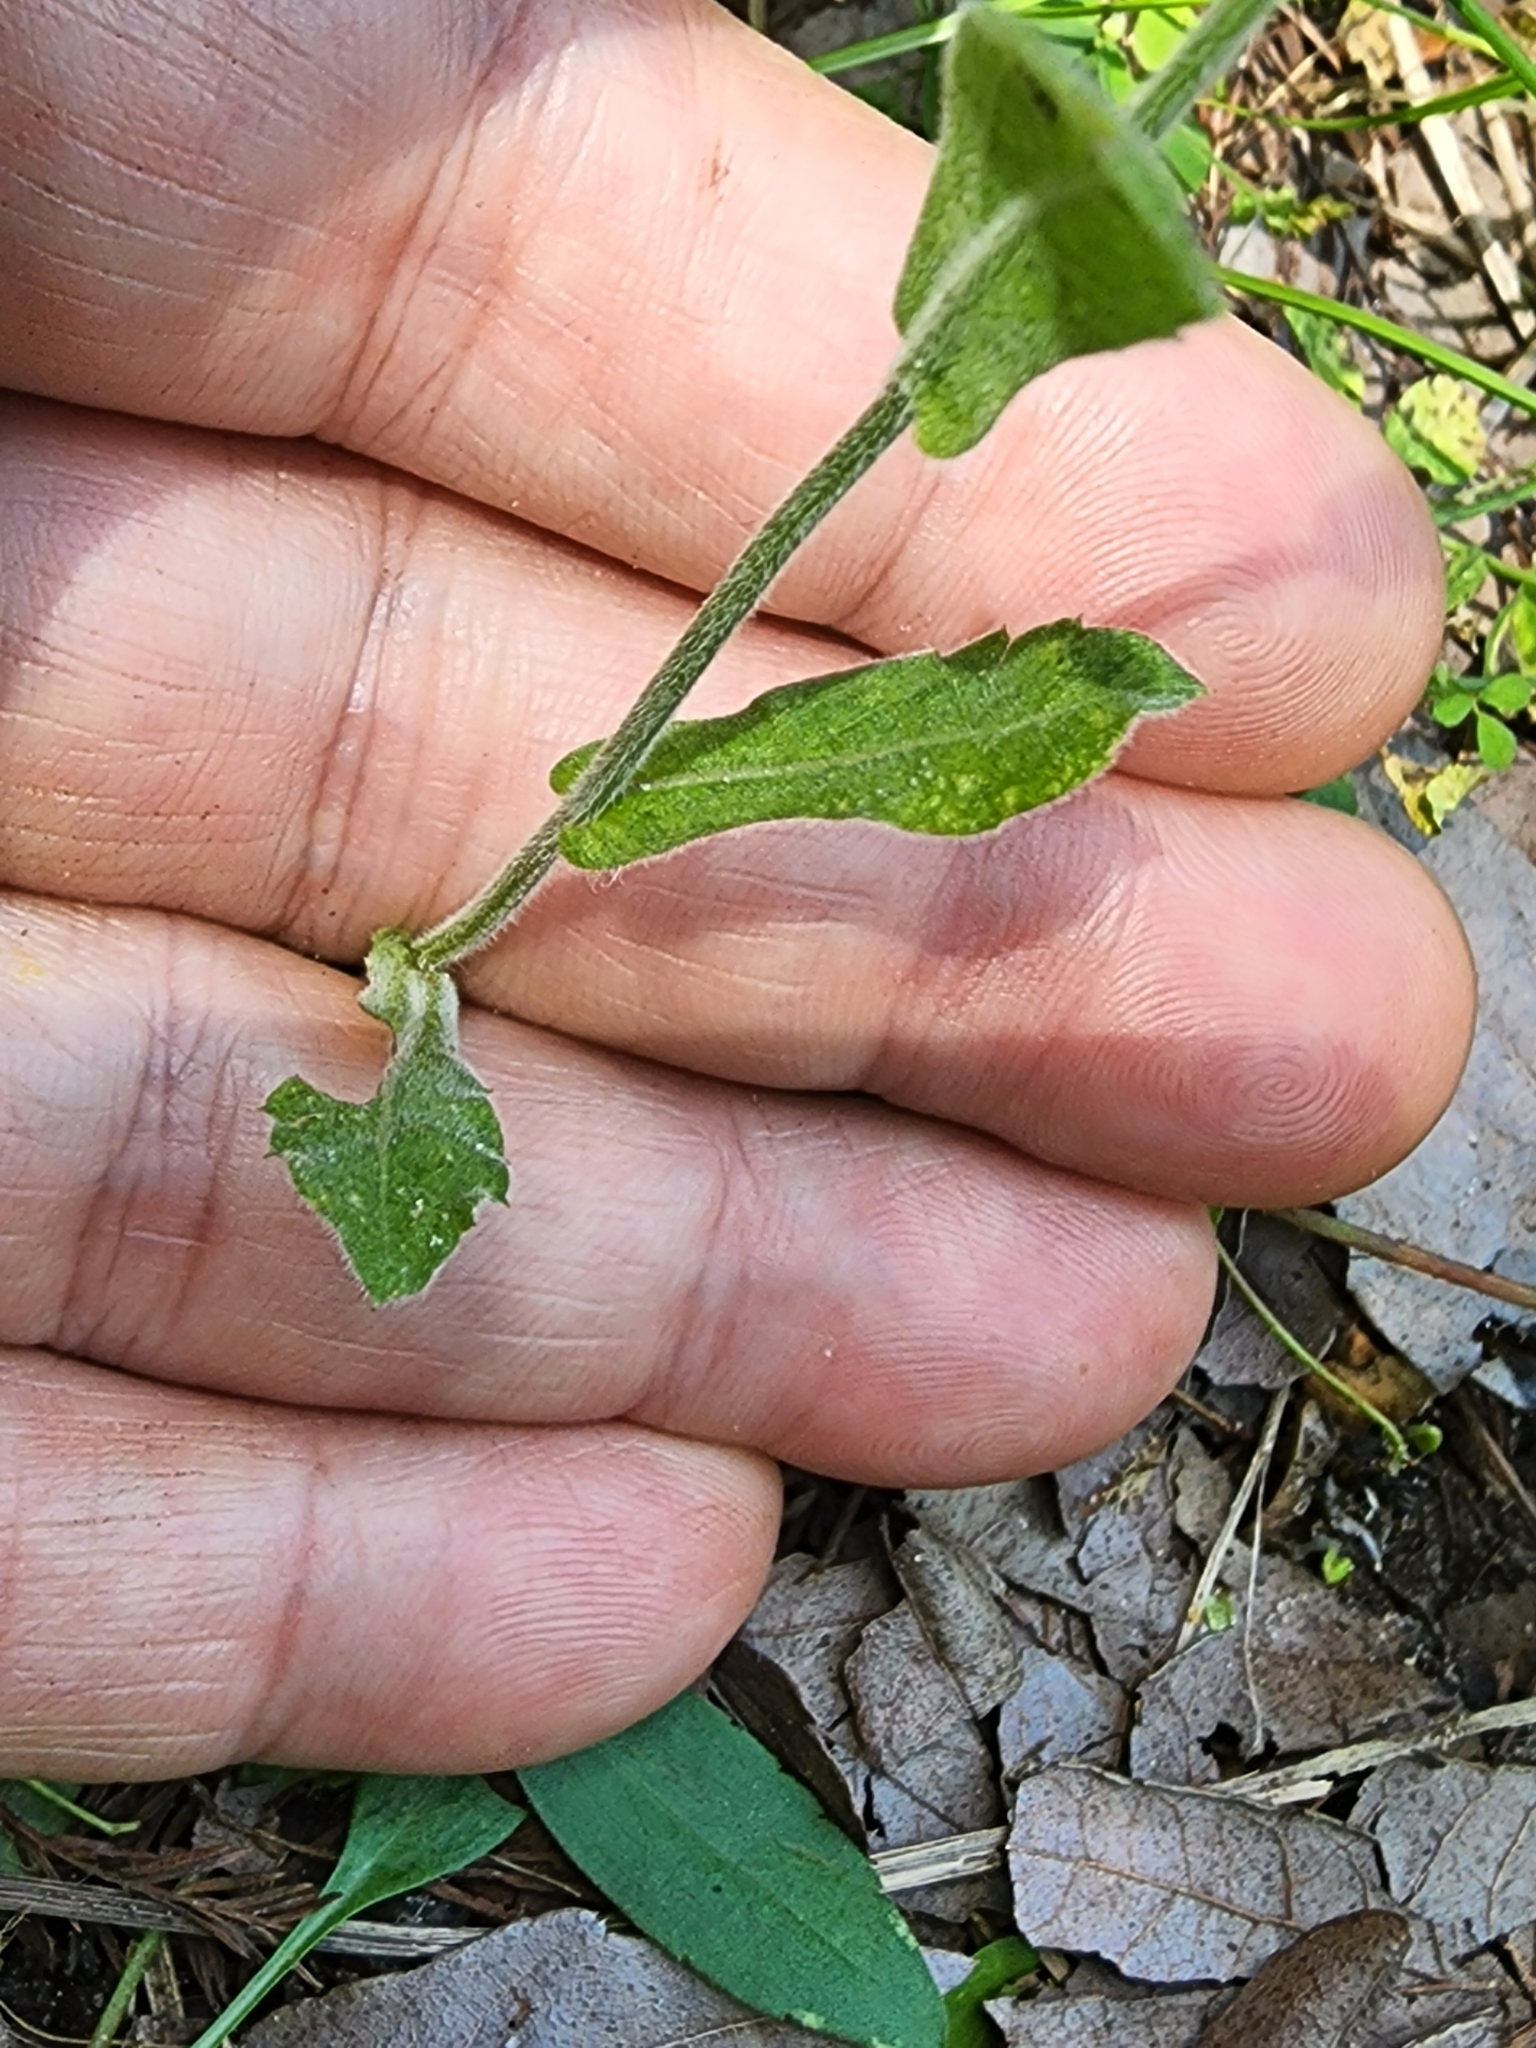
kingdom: Plantae
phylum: Tracheophyta
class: Magnoliopsida
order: Asterales
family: Asteraceae
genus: Erigeron
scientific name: Erigeron quercifolius
